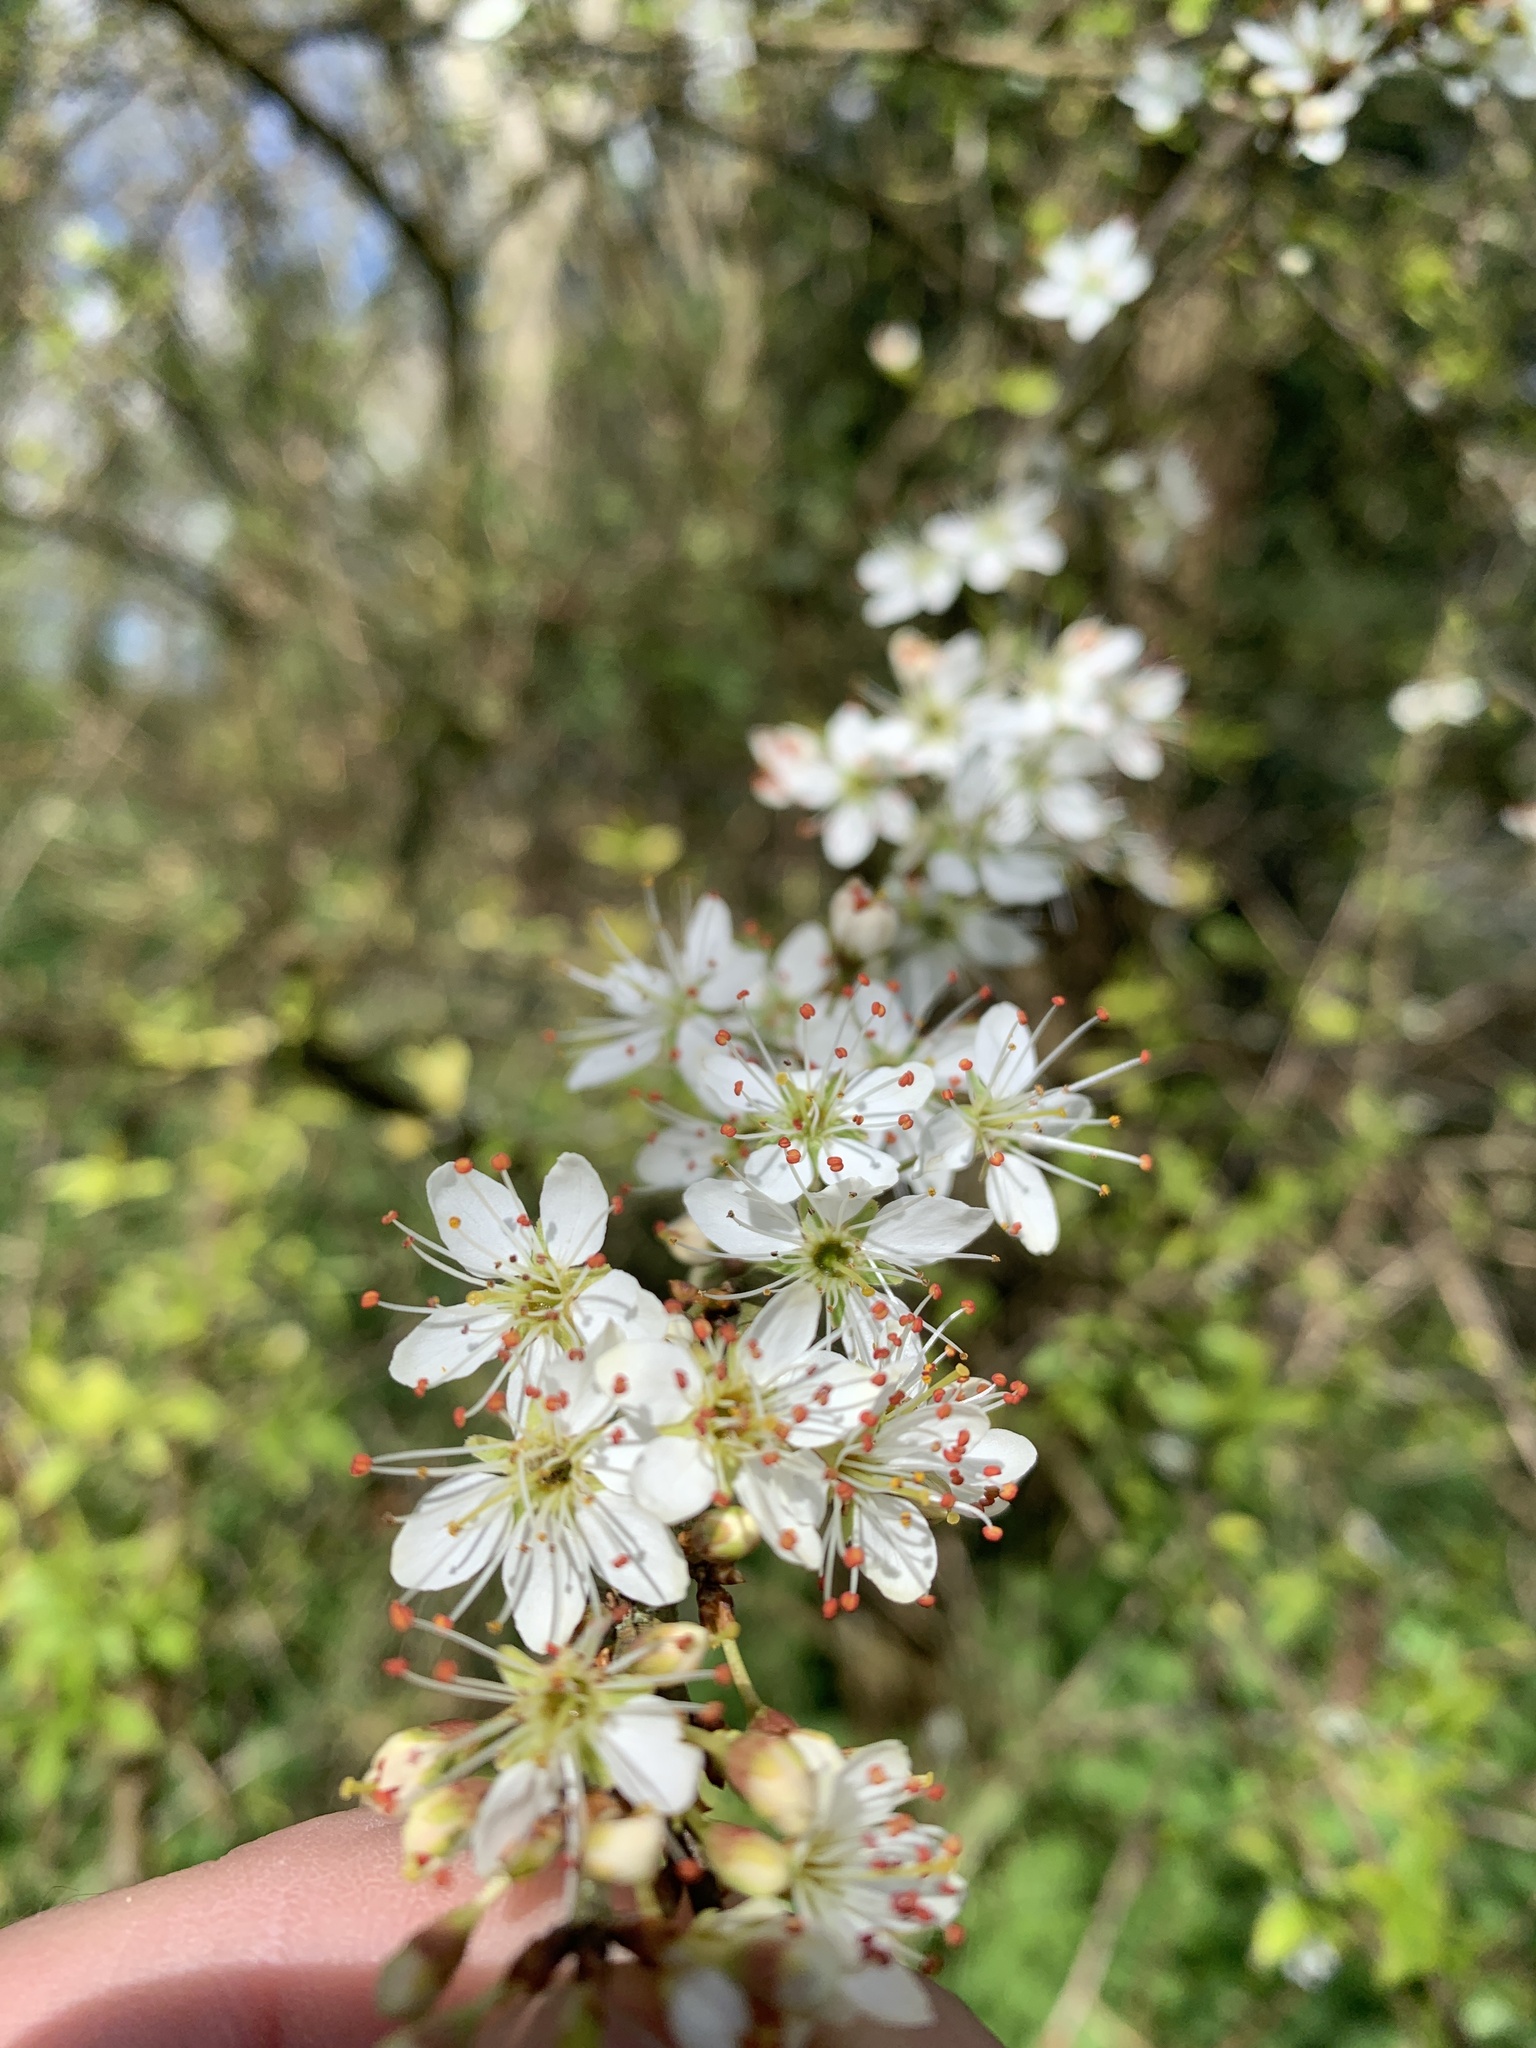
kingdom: Plantae
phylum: Tracheophyta
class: Magnoliopsida
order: Rosales
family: Rosaceae
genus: Prunus
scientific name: Prunus spinosa
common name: Blackthorn
